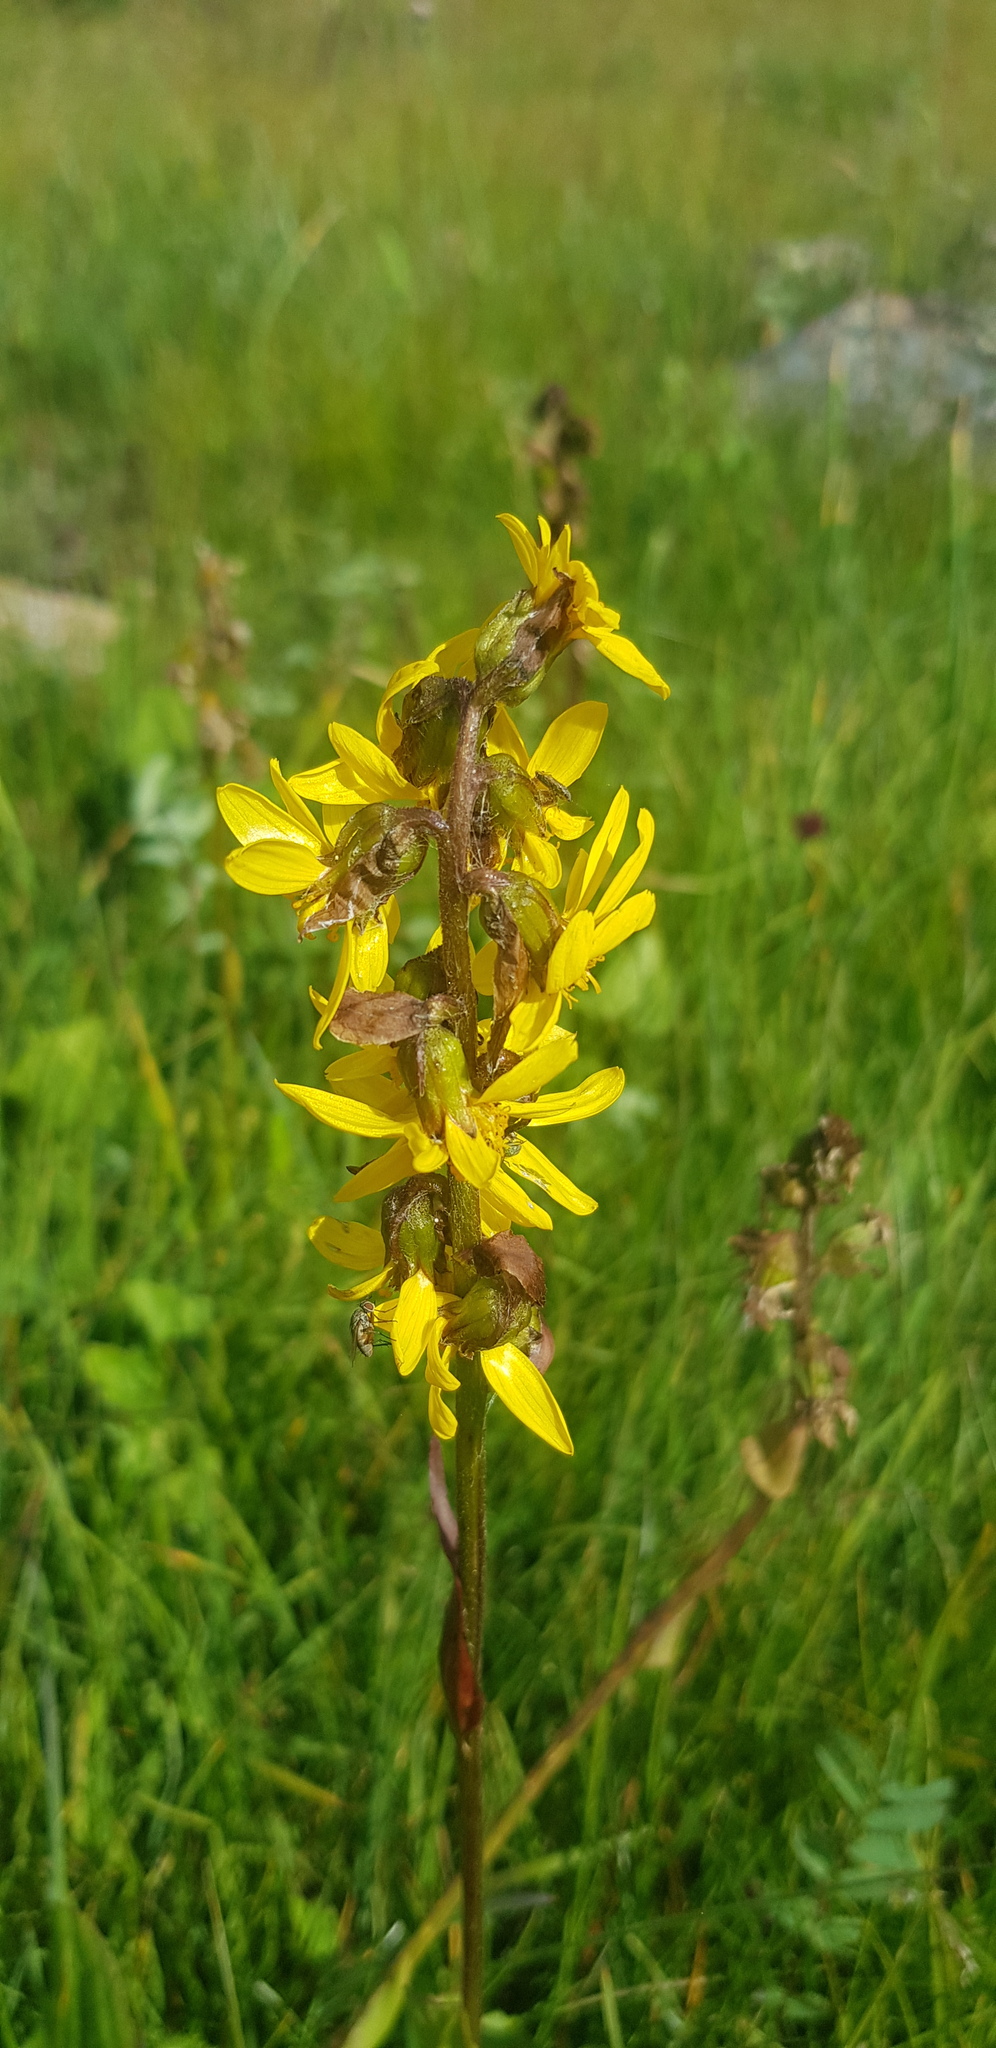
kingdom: Plantae
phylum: Tracheophyta
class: Magnoliopsida
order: Asterales
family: Asteraceae
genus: Ligularia
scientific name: Ligularia sibirica
